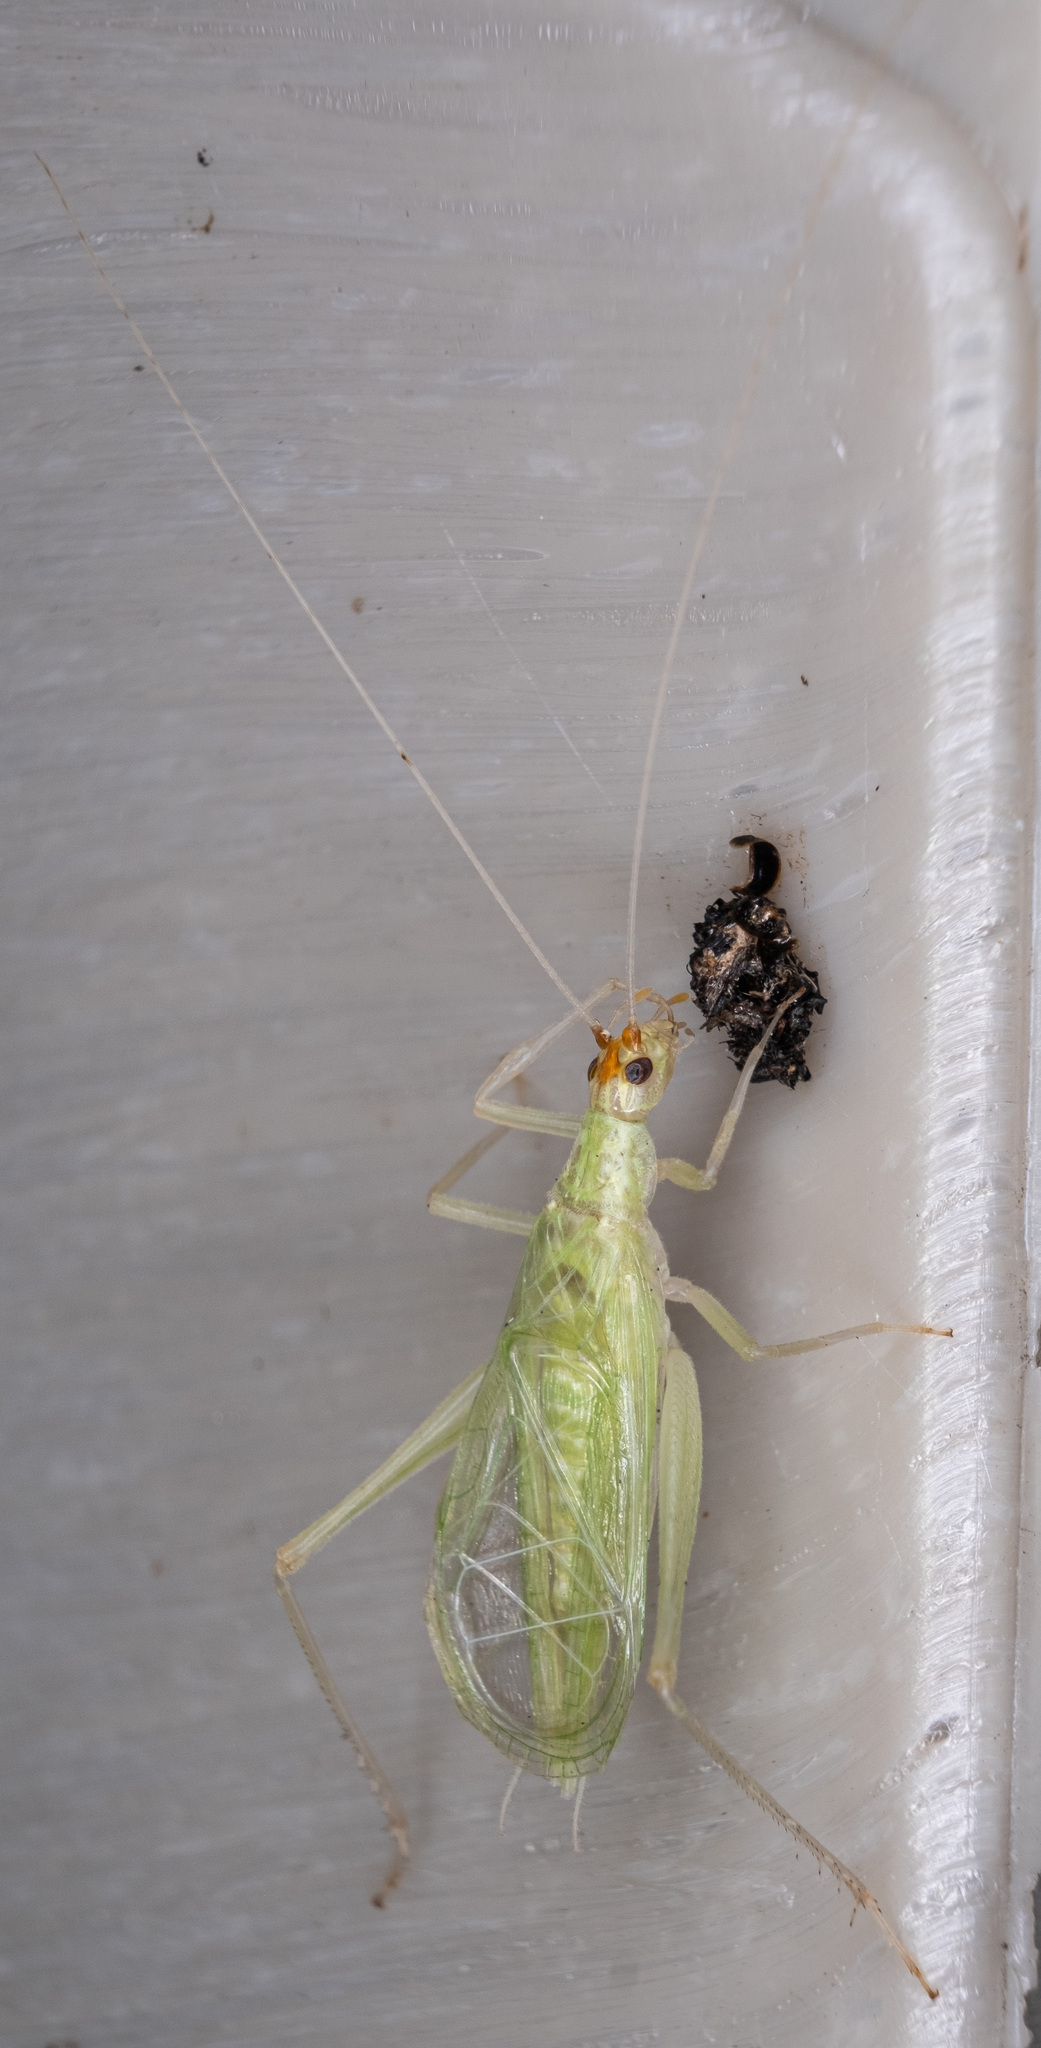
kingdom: Animalia
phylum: Arthropoda
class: Insecta
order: Orthoptera
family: Gryllidae
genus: Oecanthus
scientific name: Oecanthus fultoni
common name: Snowy tree cricket
